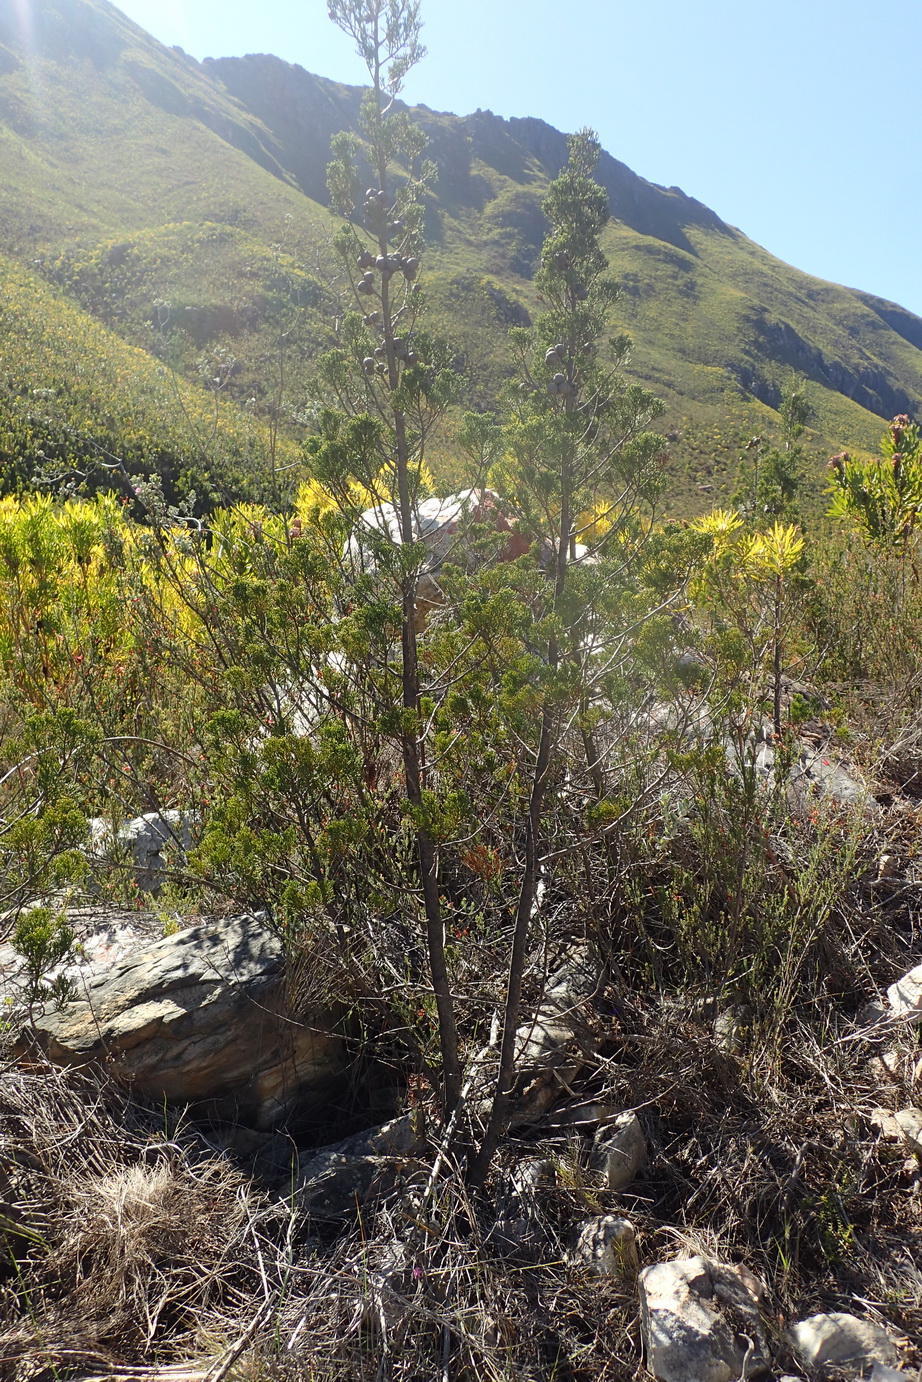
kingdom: Plantae
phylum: Tracheophyta
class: Pinopsida
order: Pinales
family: Cupressaceae
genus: Widdringtonia
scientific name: Widdringtonia nodiflora
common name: Cape cypress
